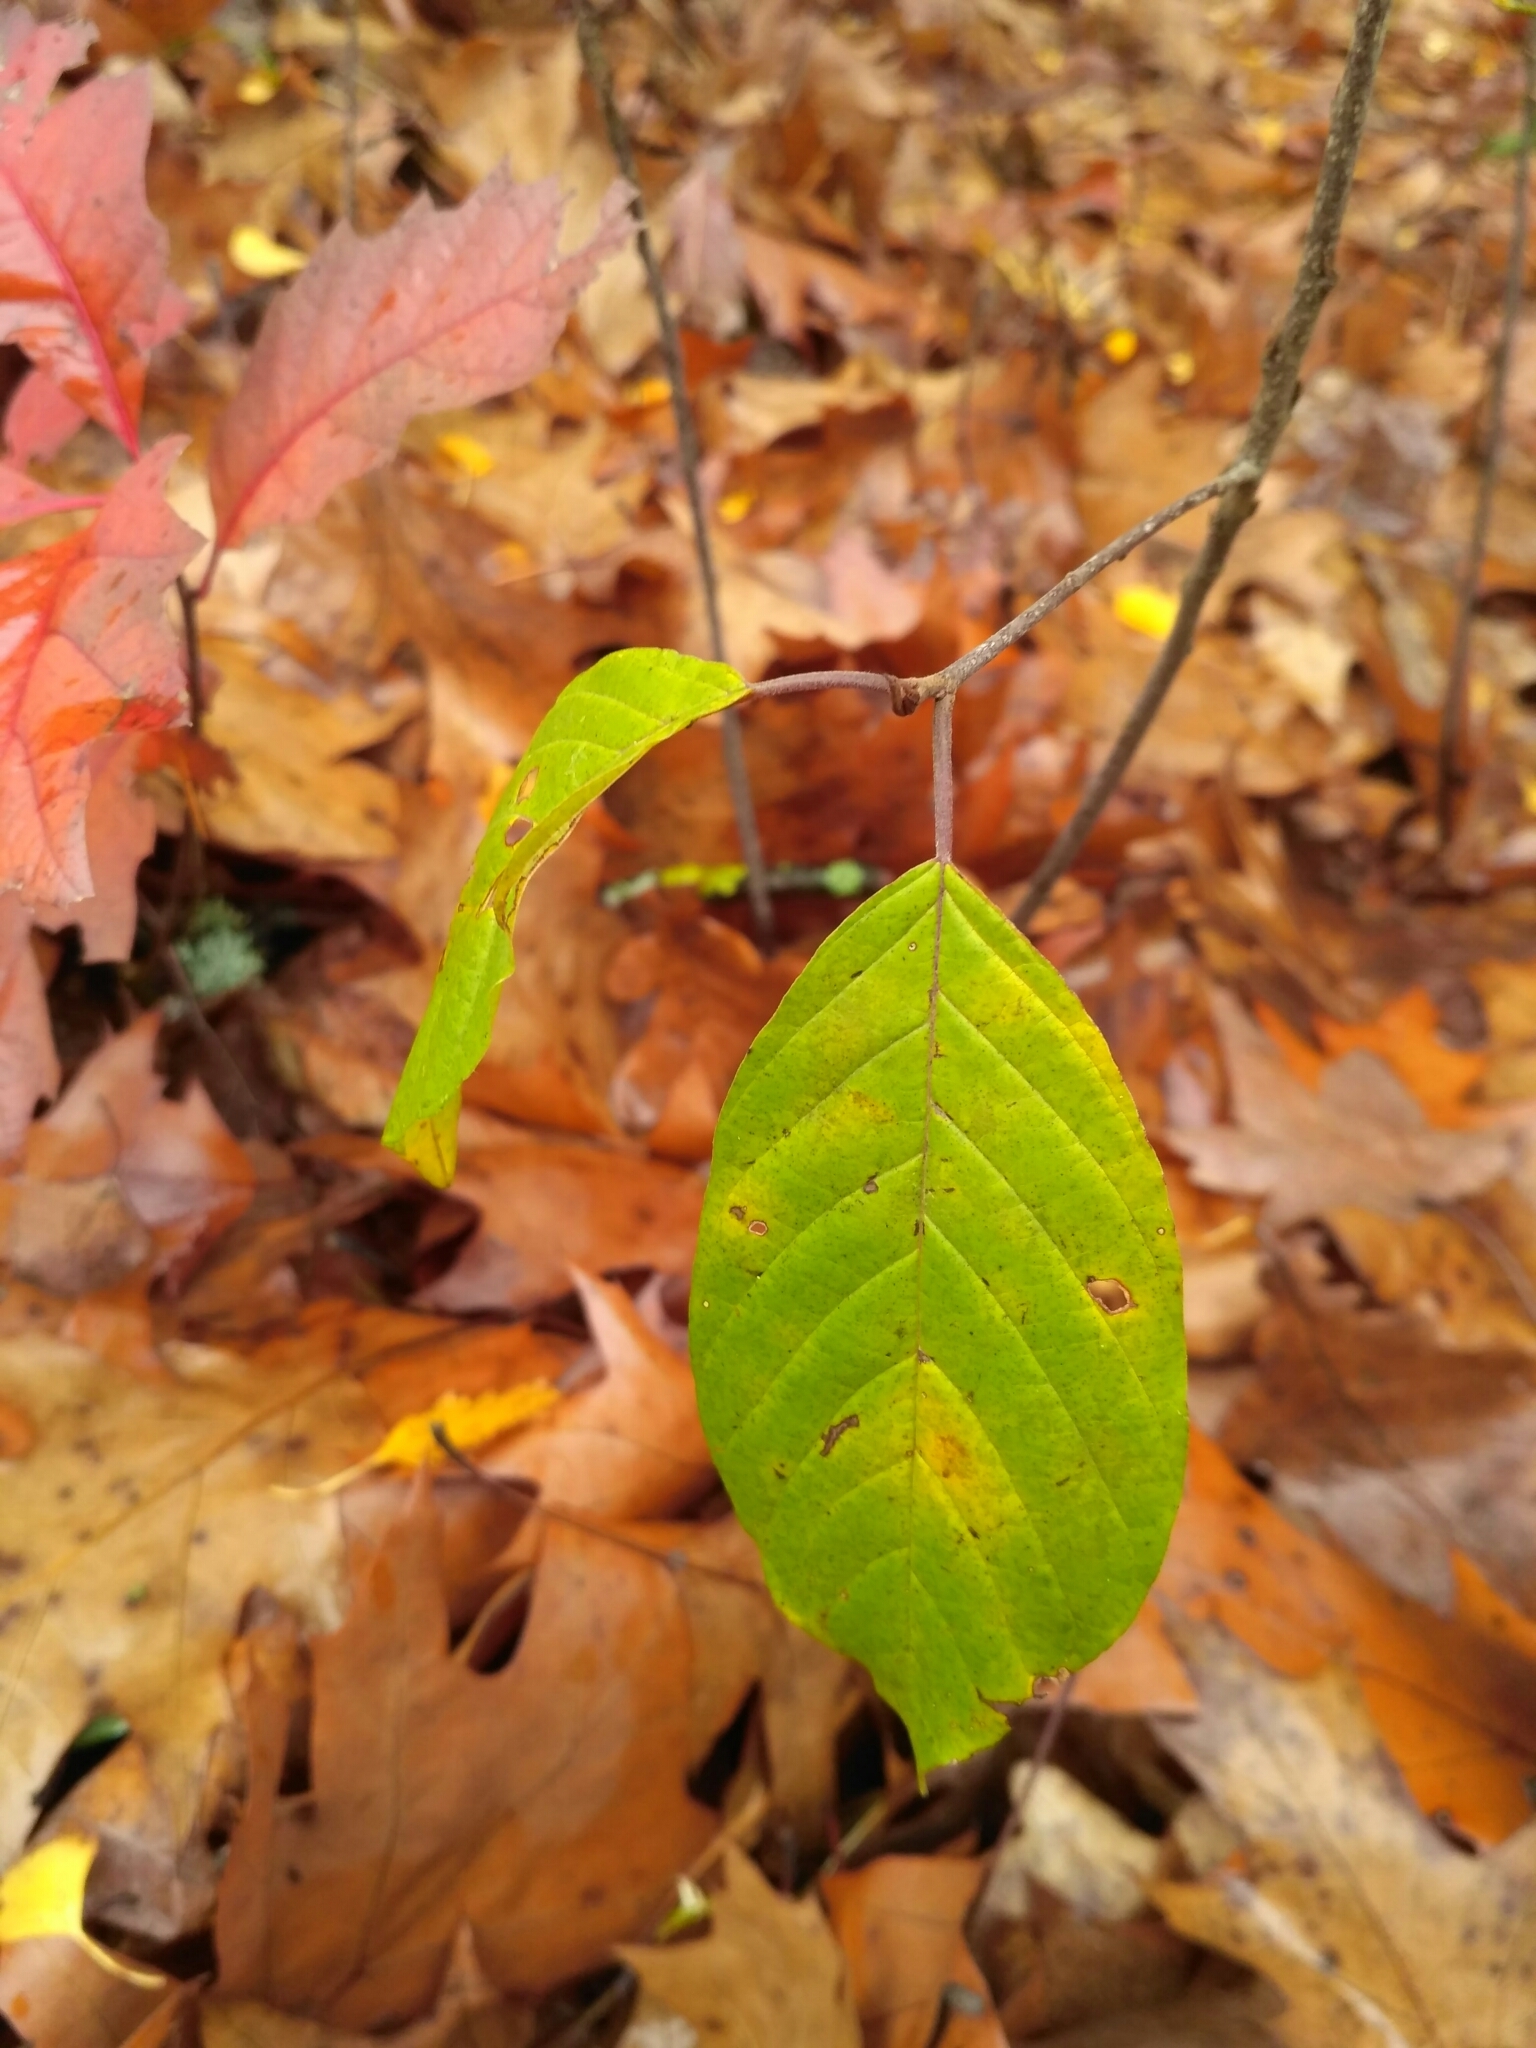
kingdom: Plantae
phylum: Tracheophyta
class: Magnoliopsida
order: Rosales
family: Rhamnaceae
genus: Frangula
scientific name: Frangula alnus
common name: Alder buckthorn
